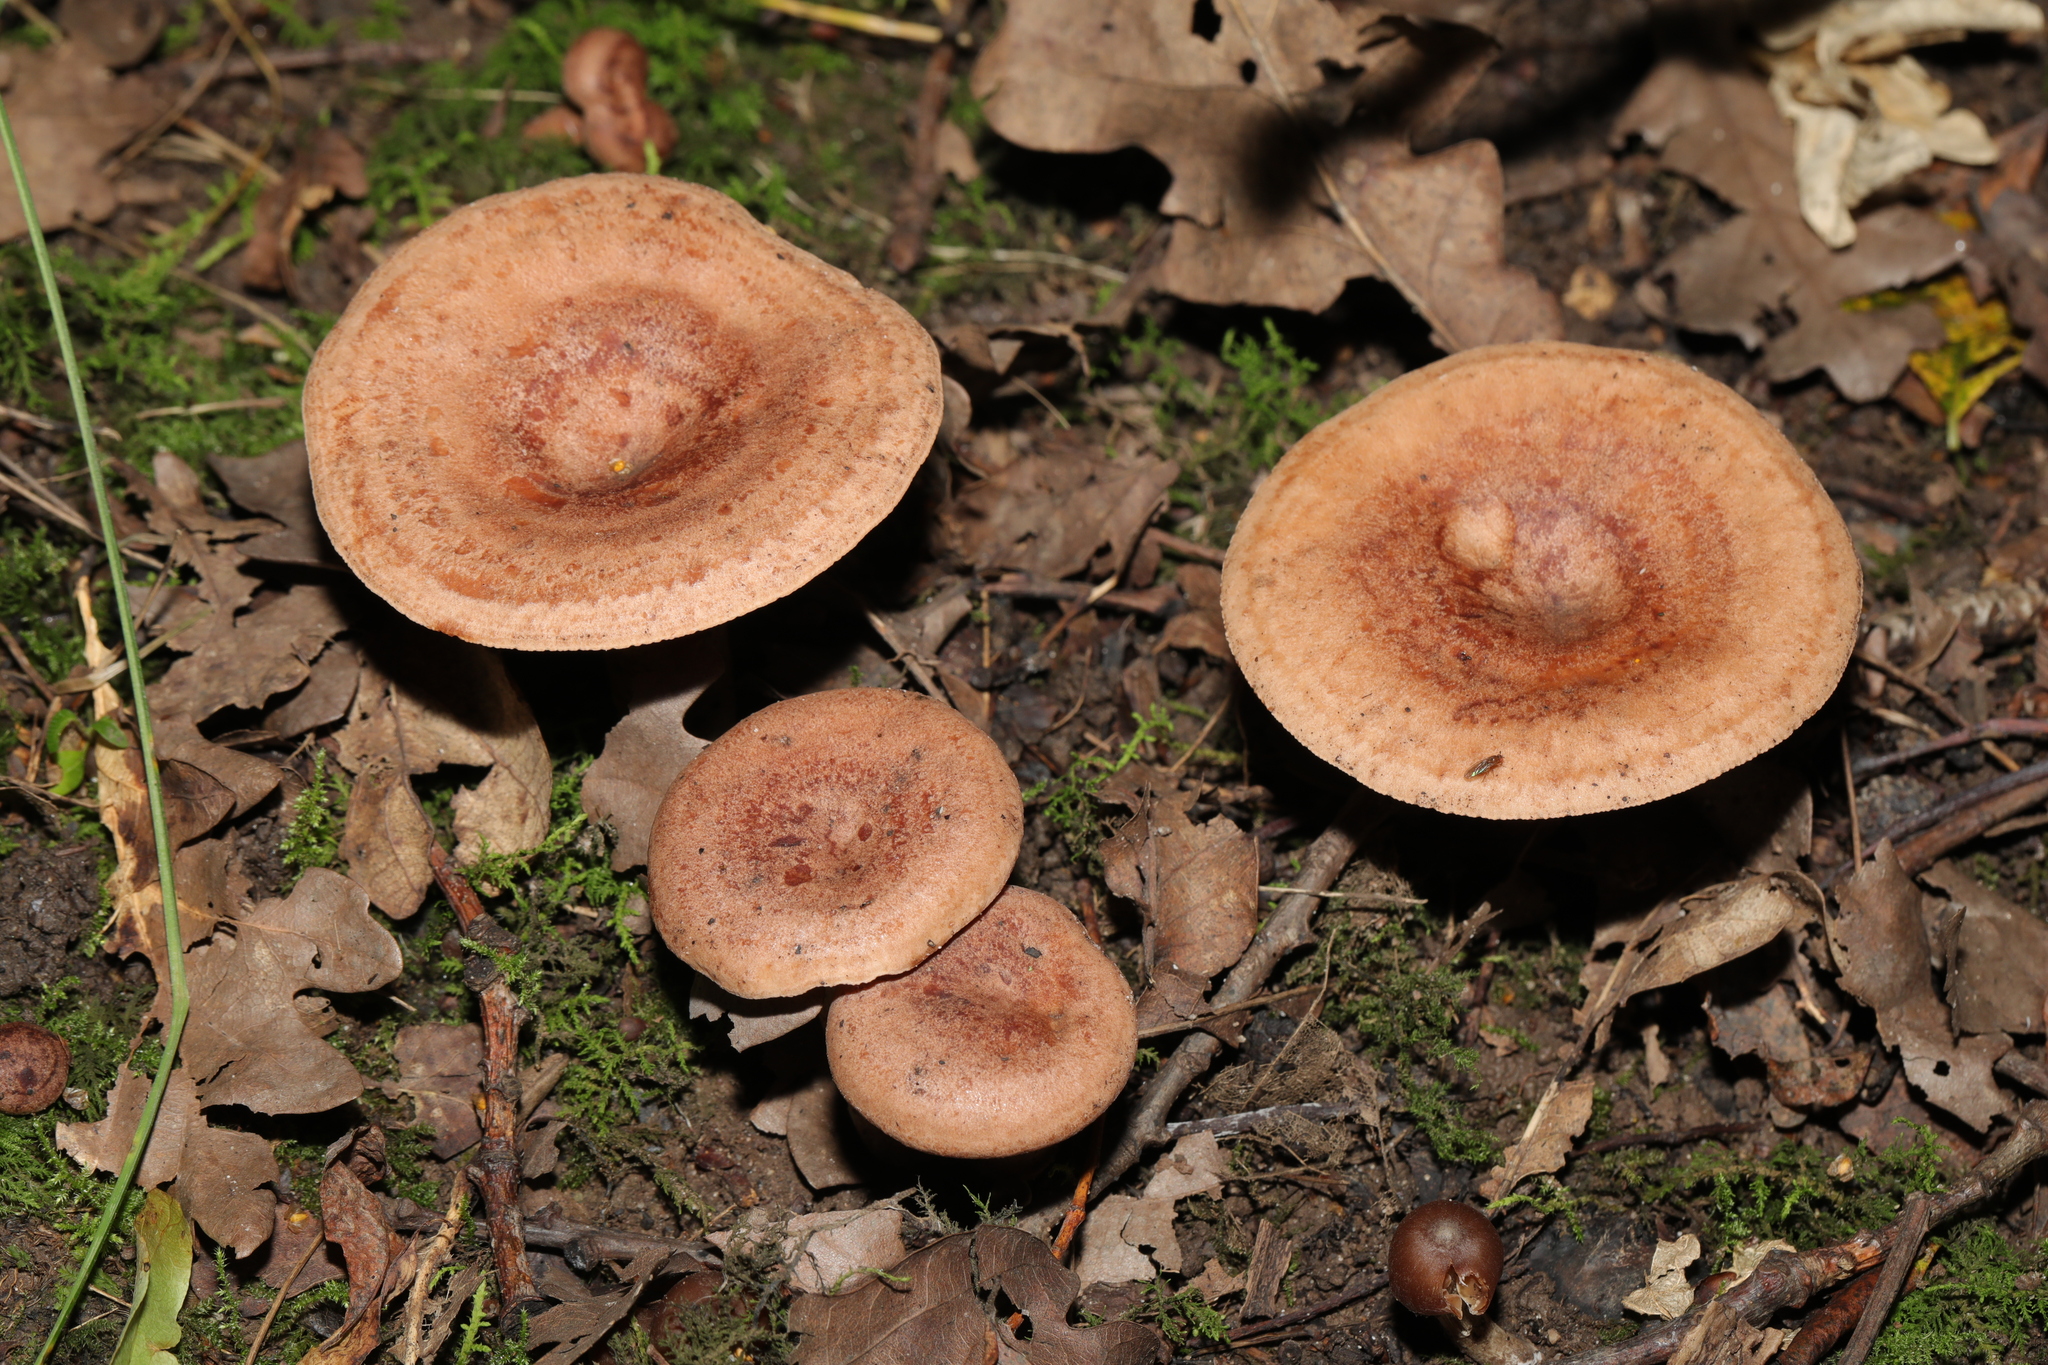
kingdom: Fungi
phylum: Basidiomycota
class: Agaricomycetes
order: Russulales
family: Russulaceae
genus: Lactarius
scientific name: Lactarius quietus
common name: Oak milk-cap
